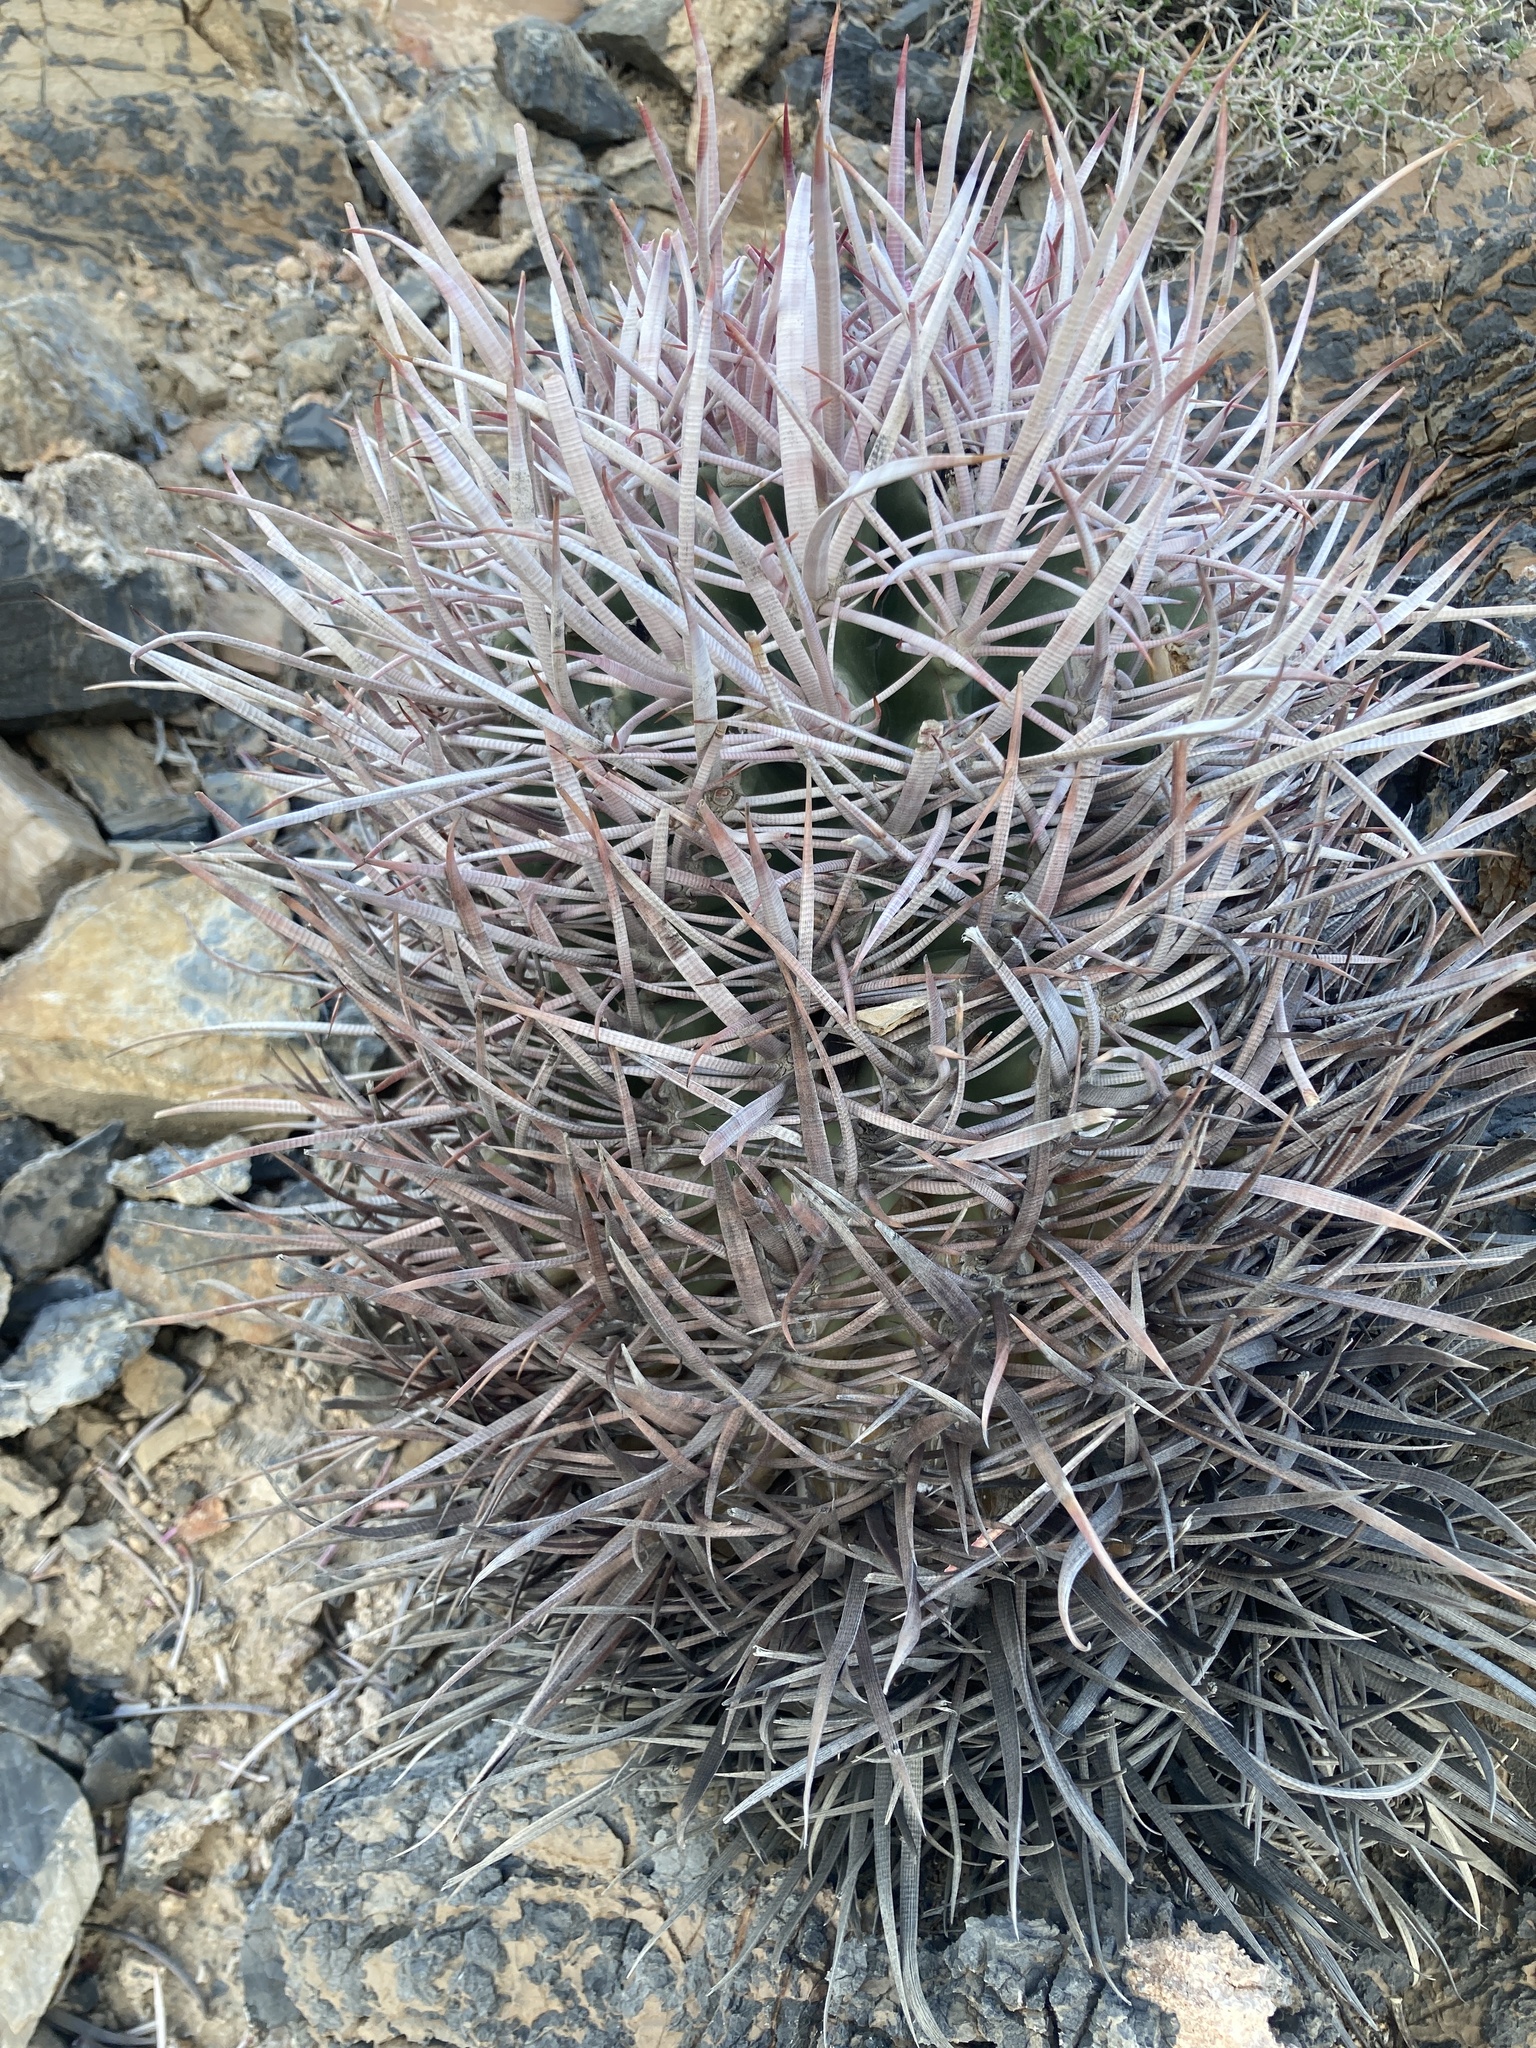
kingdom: Plantae
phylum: Tracheophyta
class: Magnoliopsida
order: Caryophyllales
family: Cactaceae
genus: Echinocactus
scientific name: Echinocactus polycephalus
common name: Cottontop cactus
